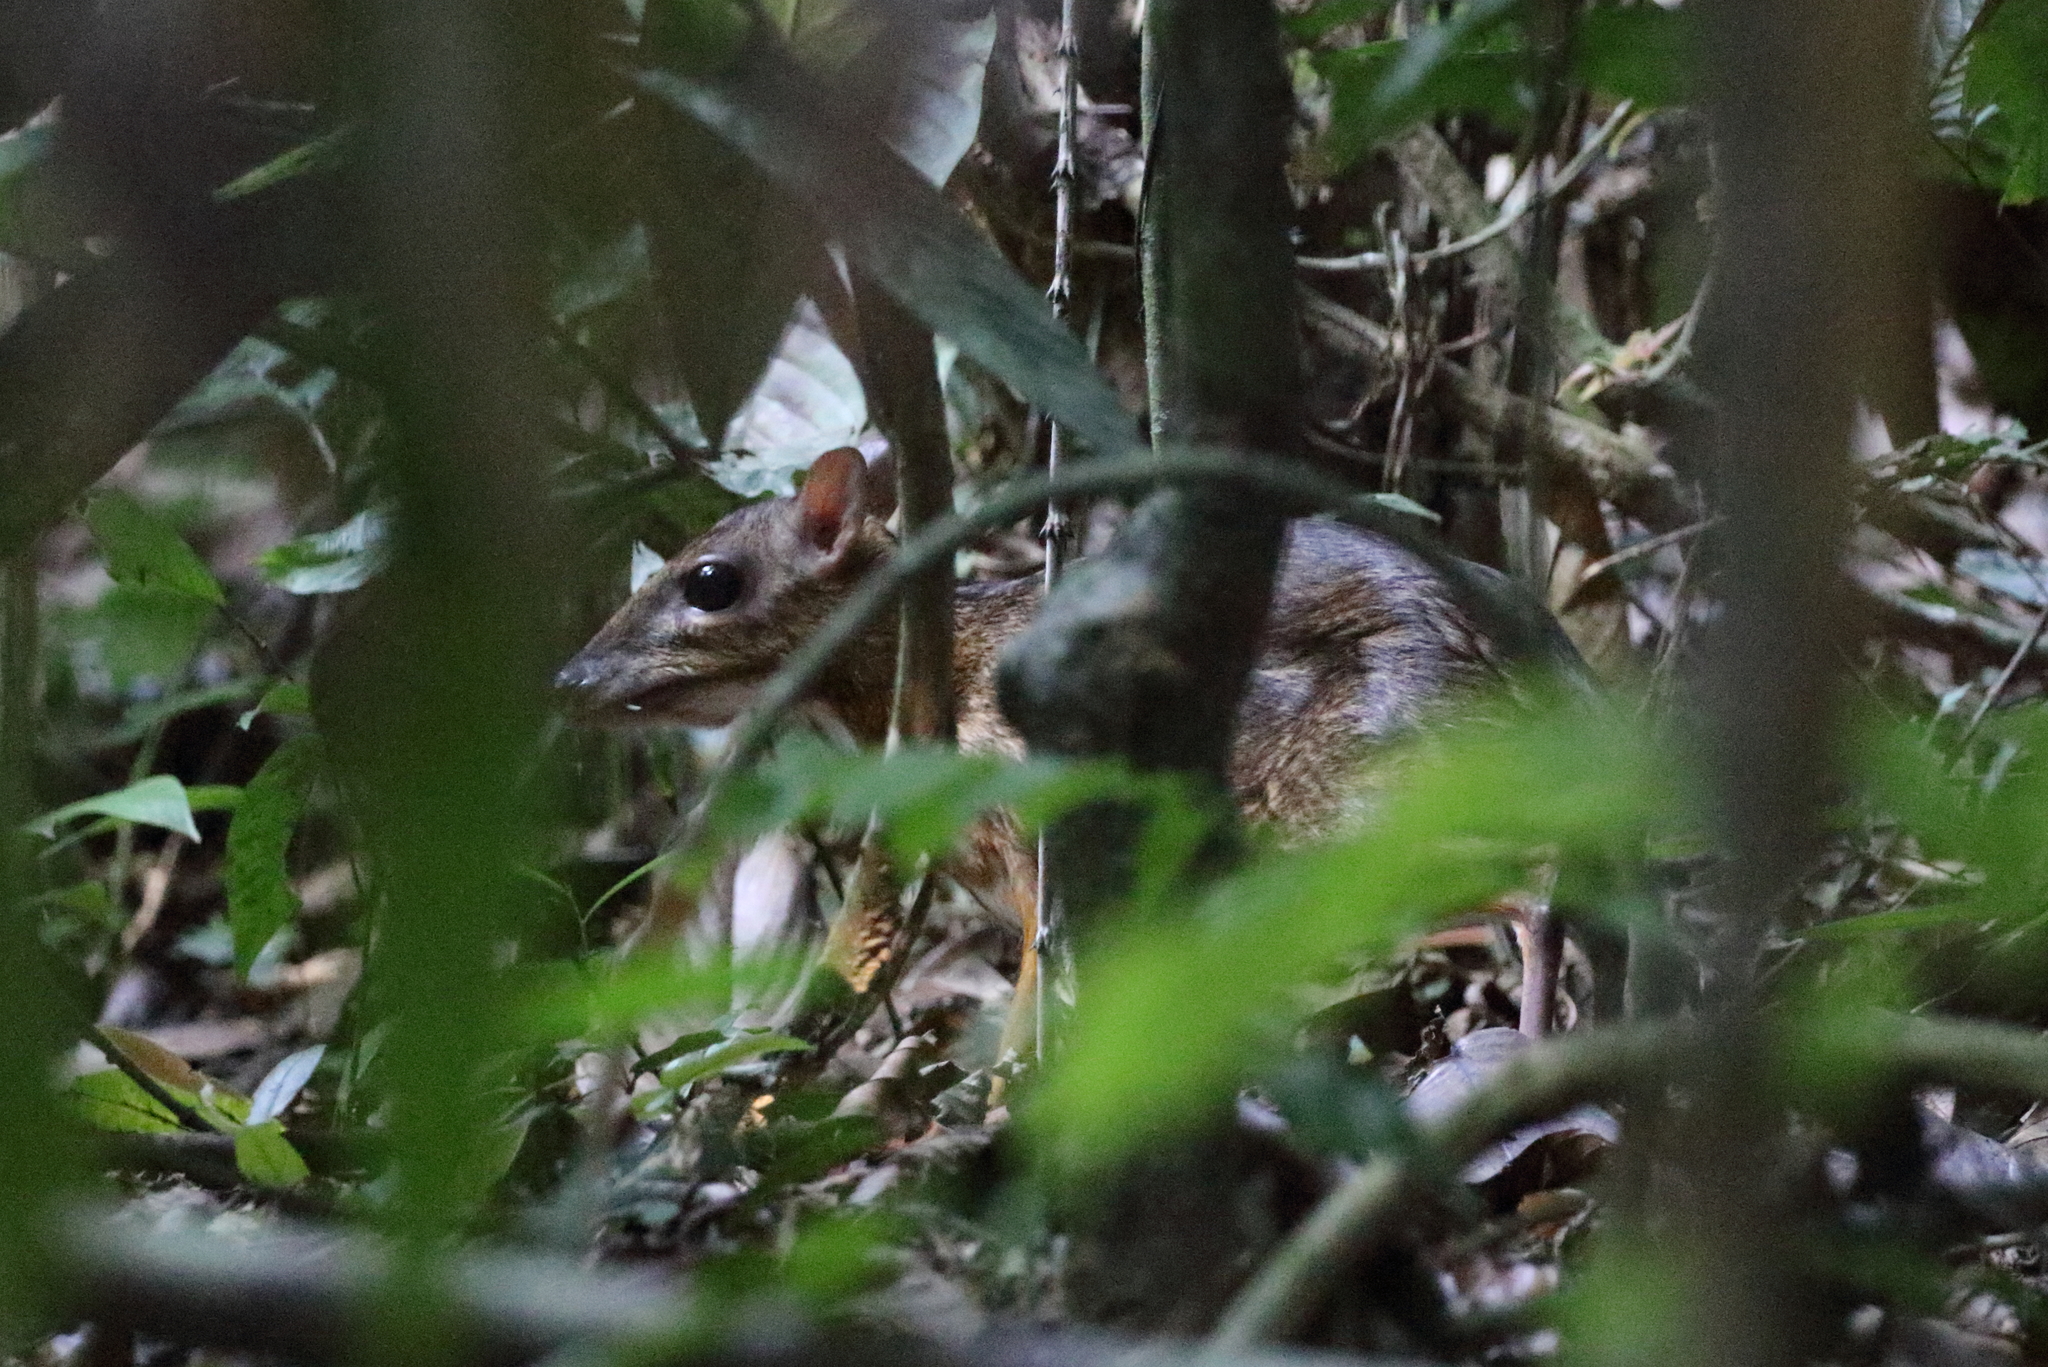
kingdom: Animalia
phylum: Chordata
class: Mammalia
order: Artiodactyla
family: Tragulidae
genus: Tragulus
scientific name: Tragulus kanchil
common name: Lesser mouse-deer
